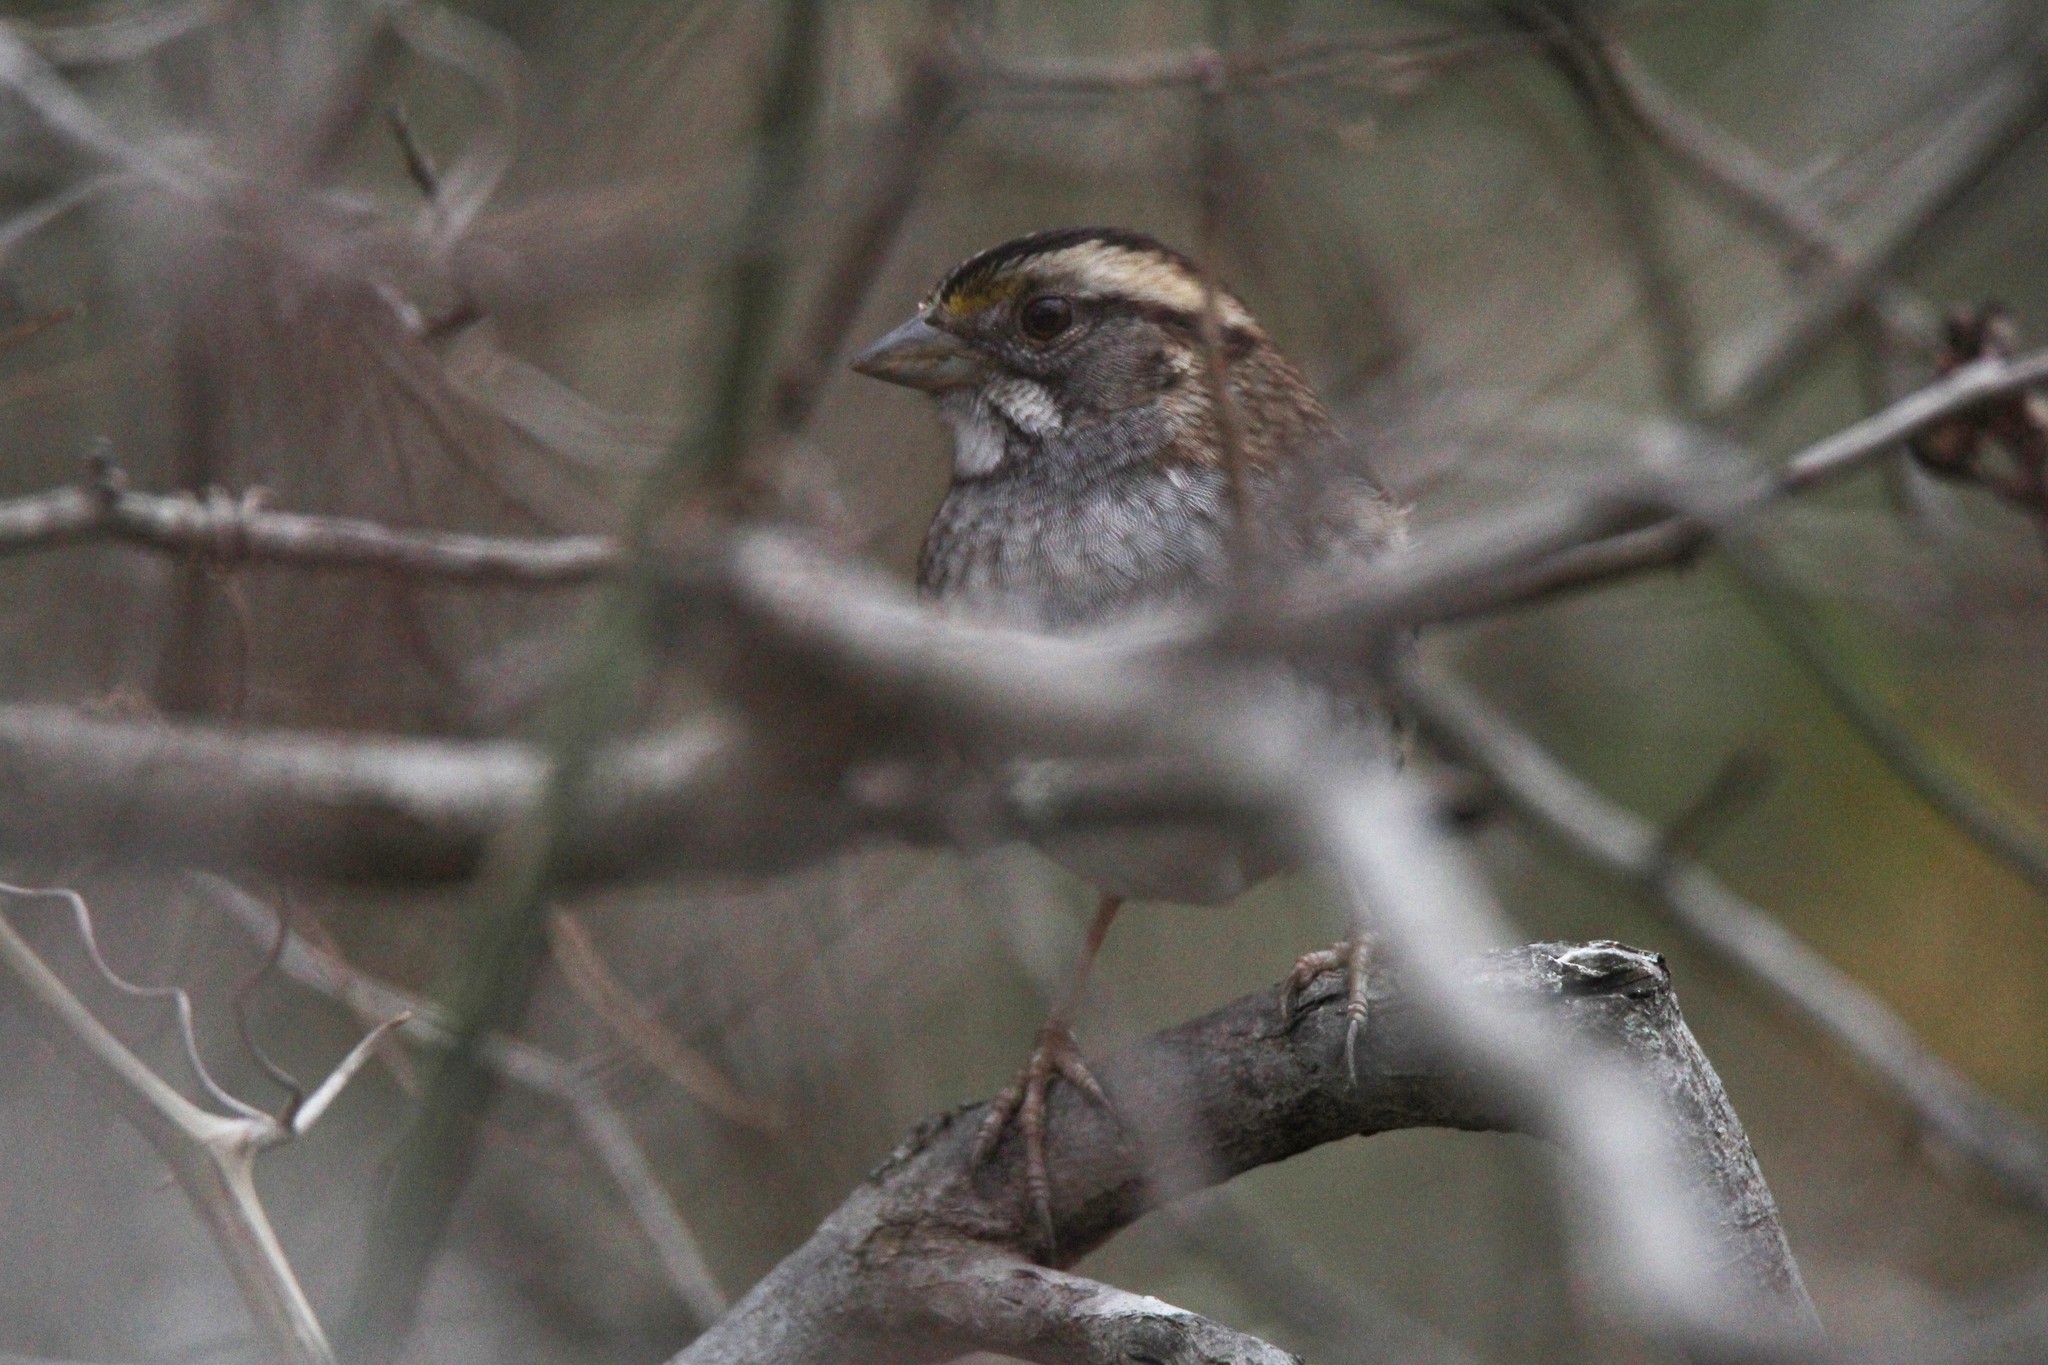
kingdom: Animalia
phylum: Chordata
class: Aves
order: Passeriformes
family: Passerellidae
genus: Zonotrichia
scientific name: Zonotrichia albicollis
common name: White-throated sparrow
